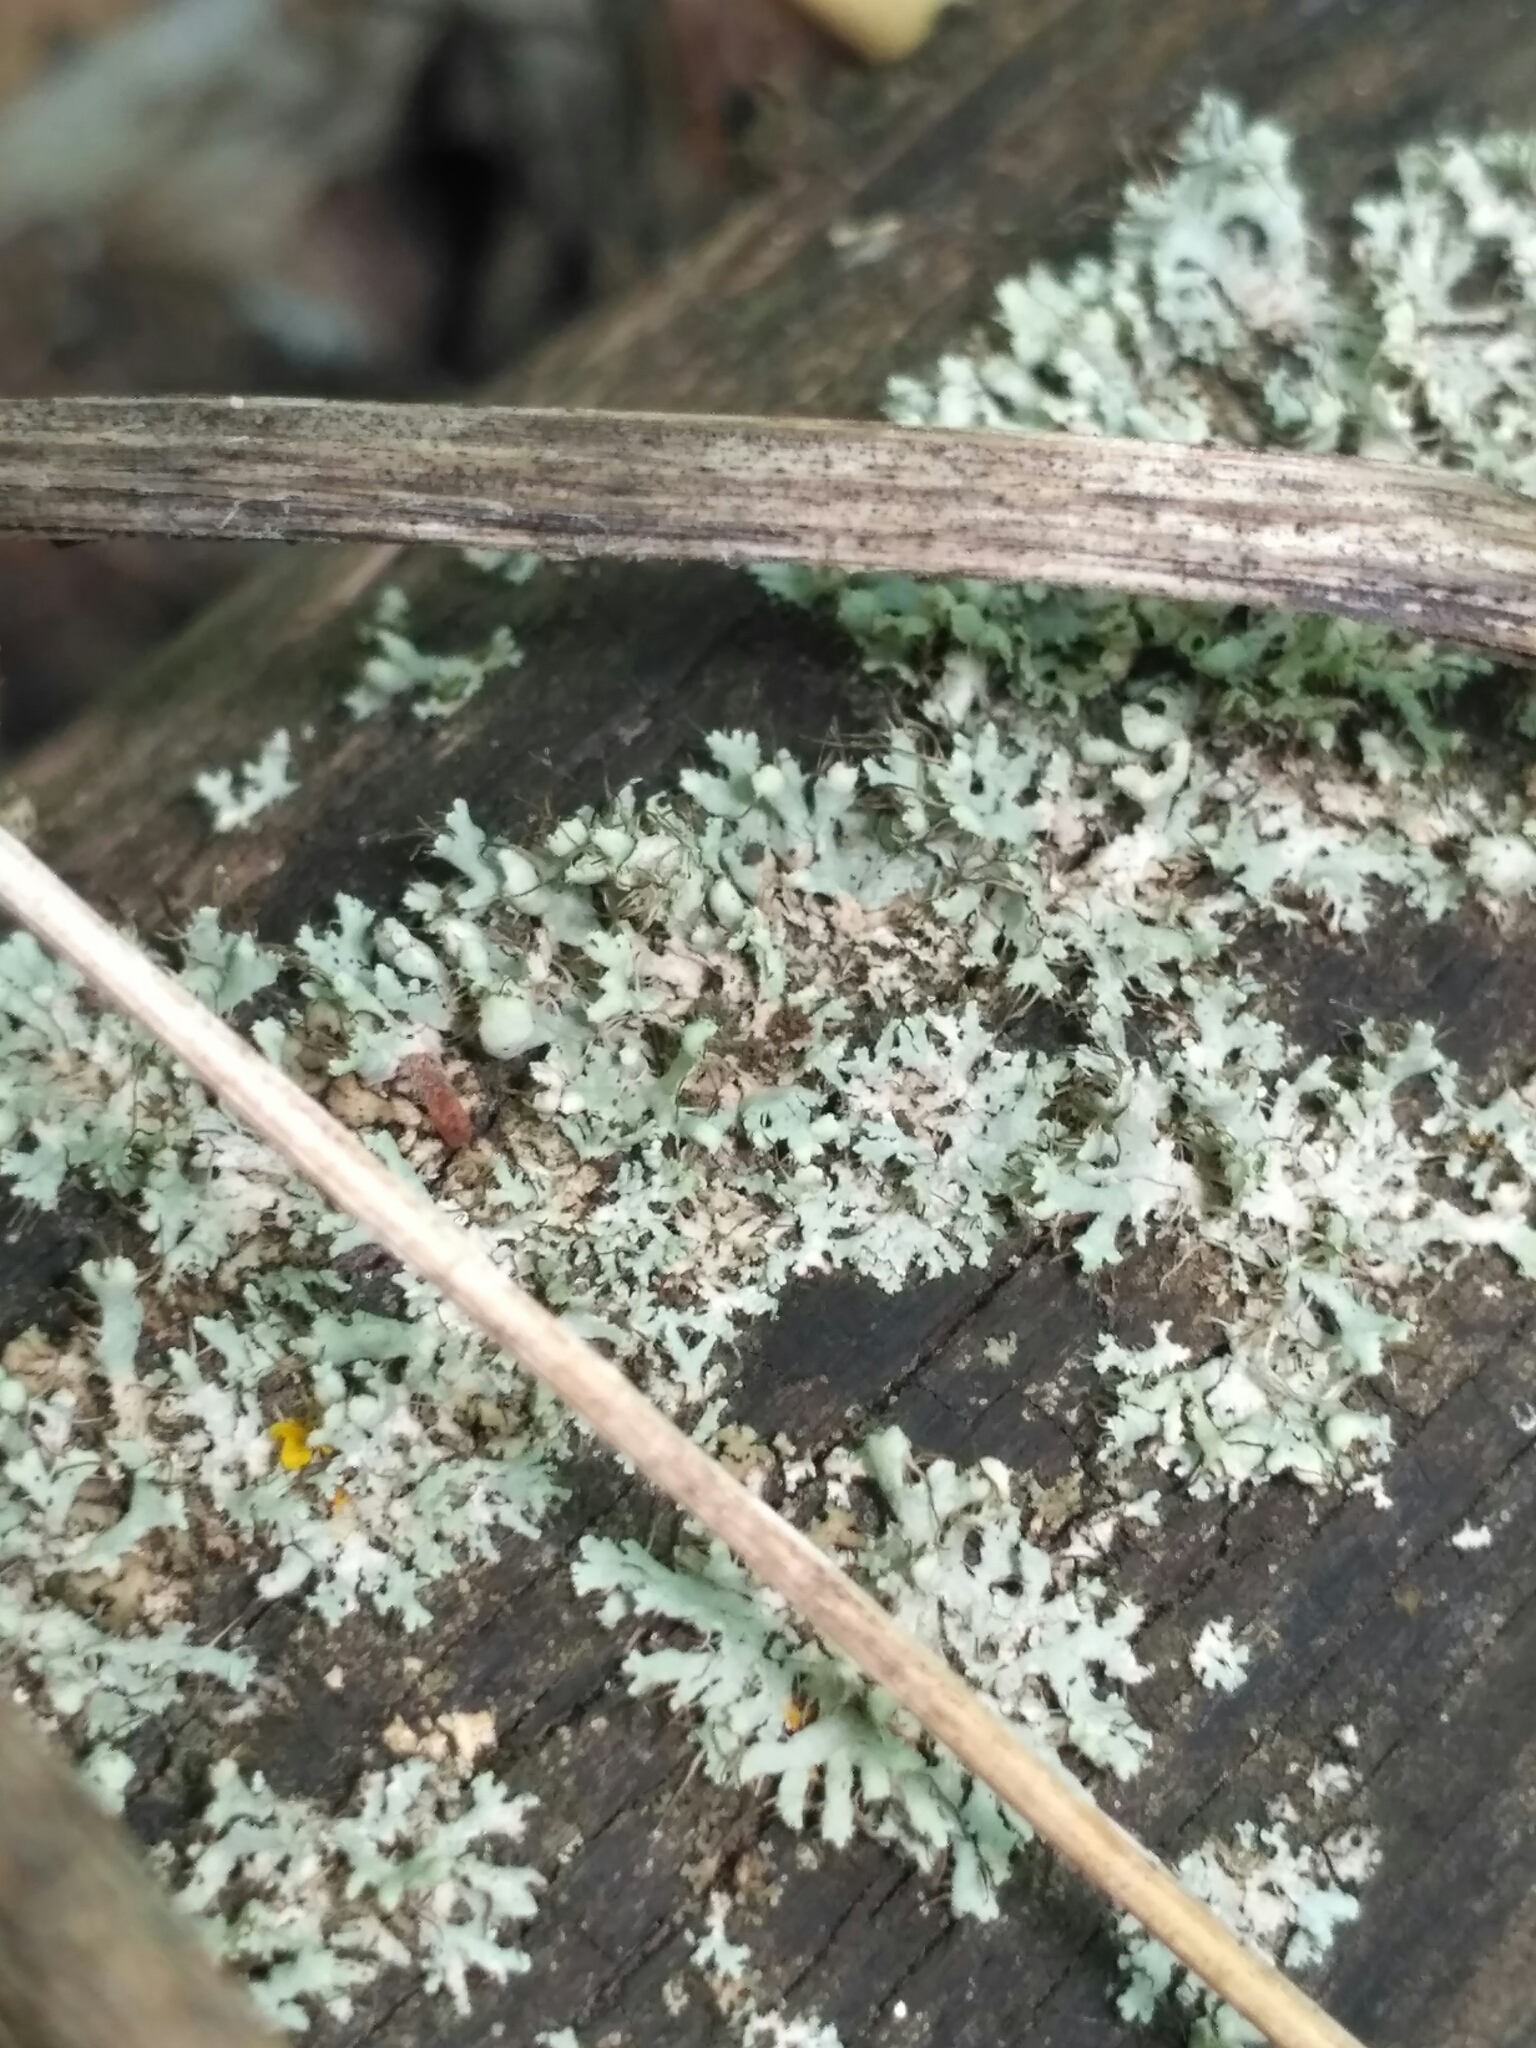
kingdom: Fungi
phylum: Ascomycota
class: Lecanoromycetes
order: Caliciales
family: Physciaceae
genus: Physcia
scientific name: Physcia adscendens
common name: Hooded rosette lichen
